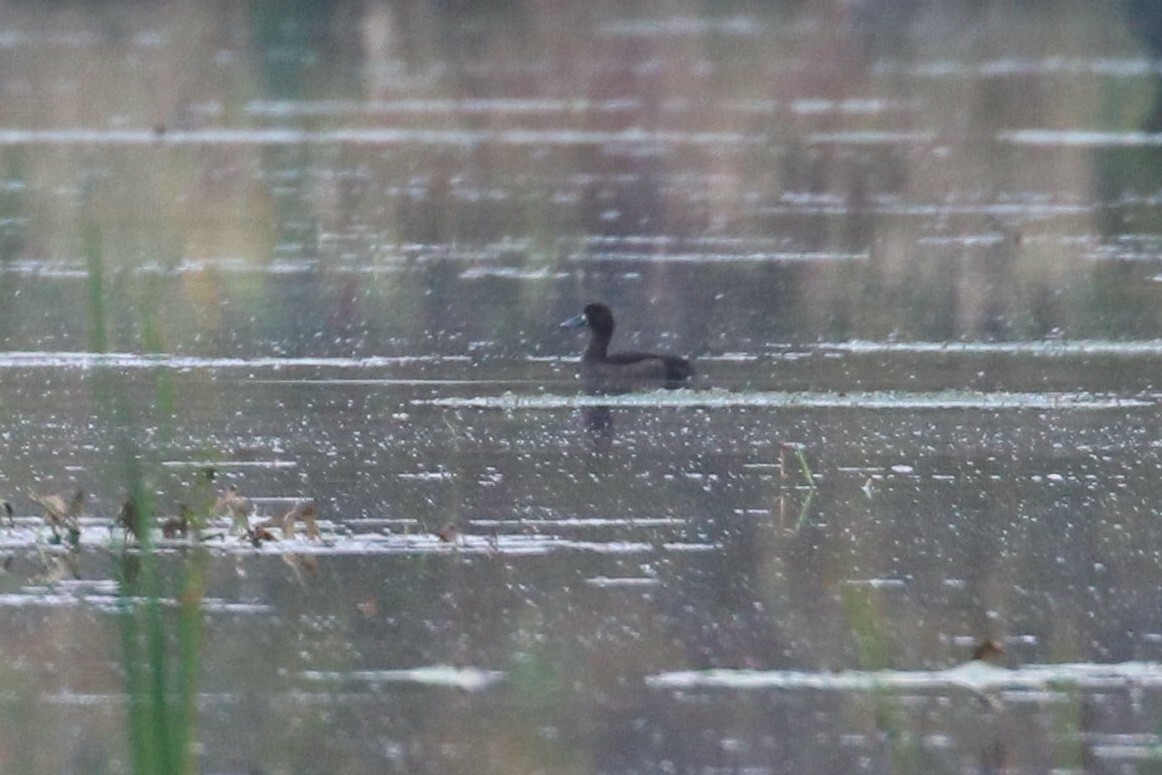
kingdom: Animalia
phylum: Chordata
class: Aves
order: Anseriformes
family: Anatidae
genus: Aythya
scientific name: Aythya fuligula
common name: Tufted duck
